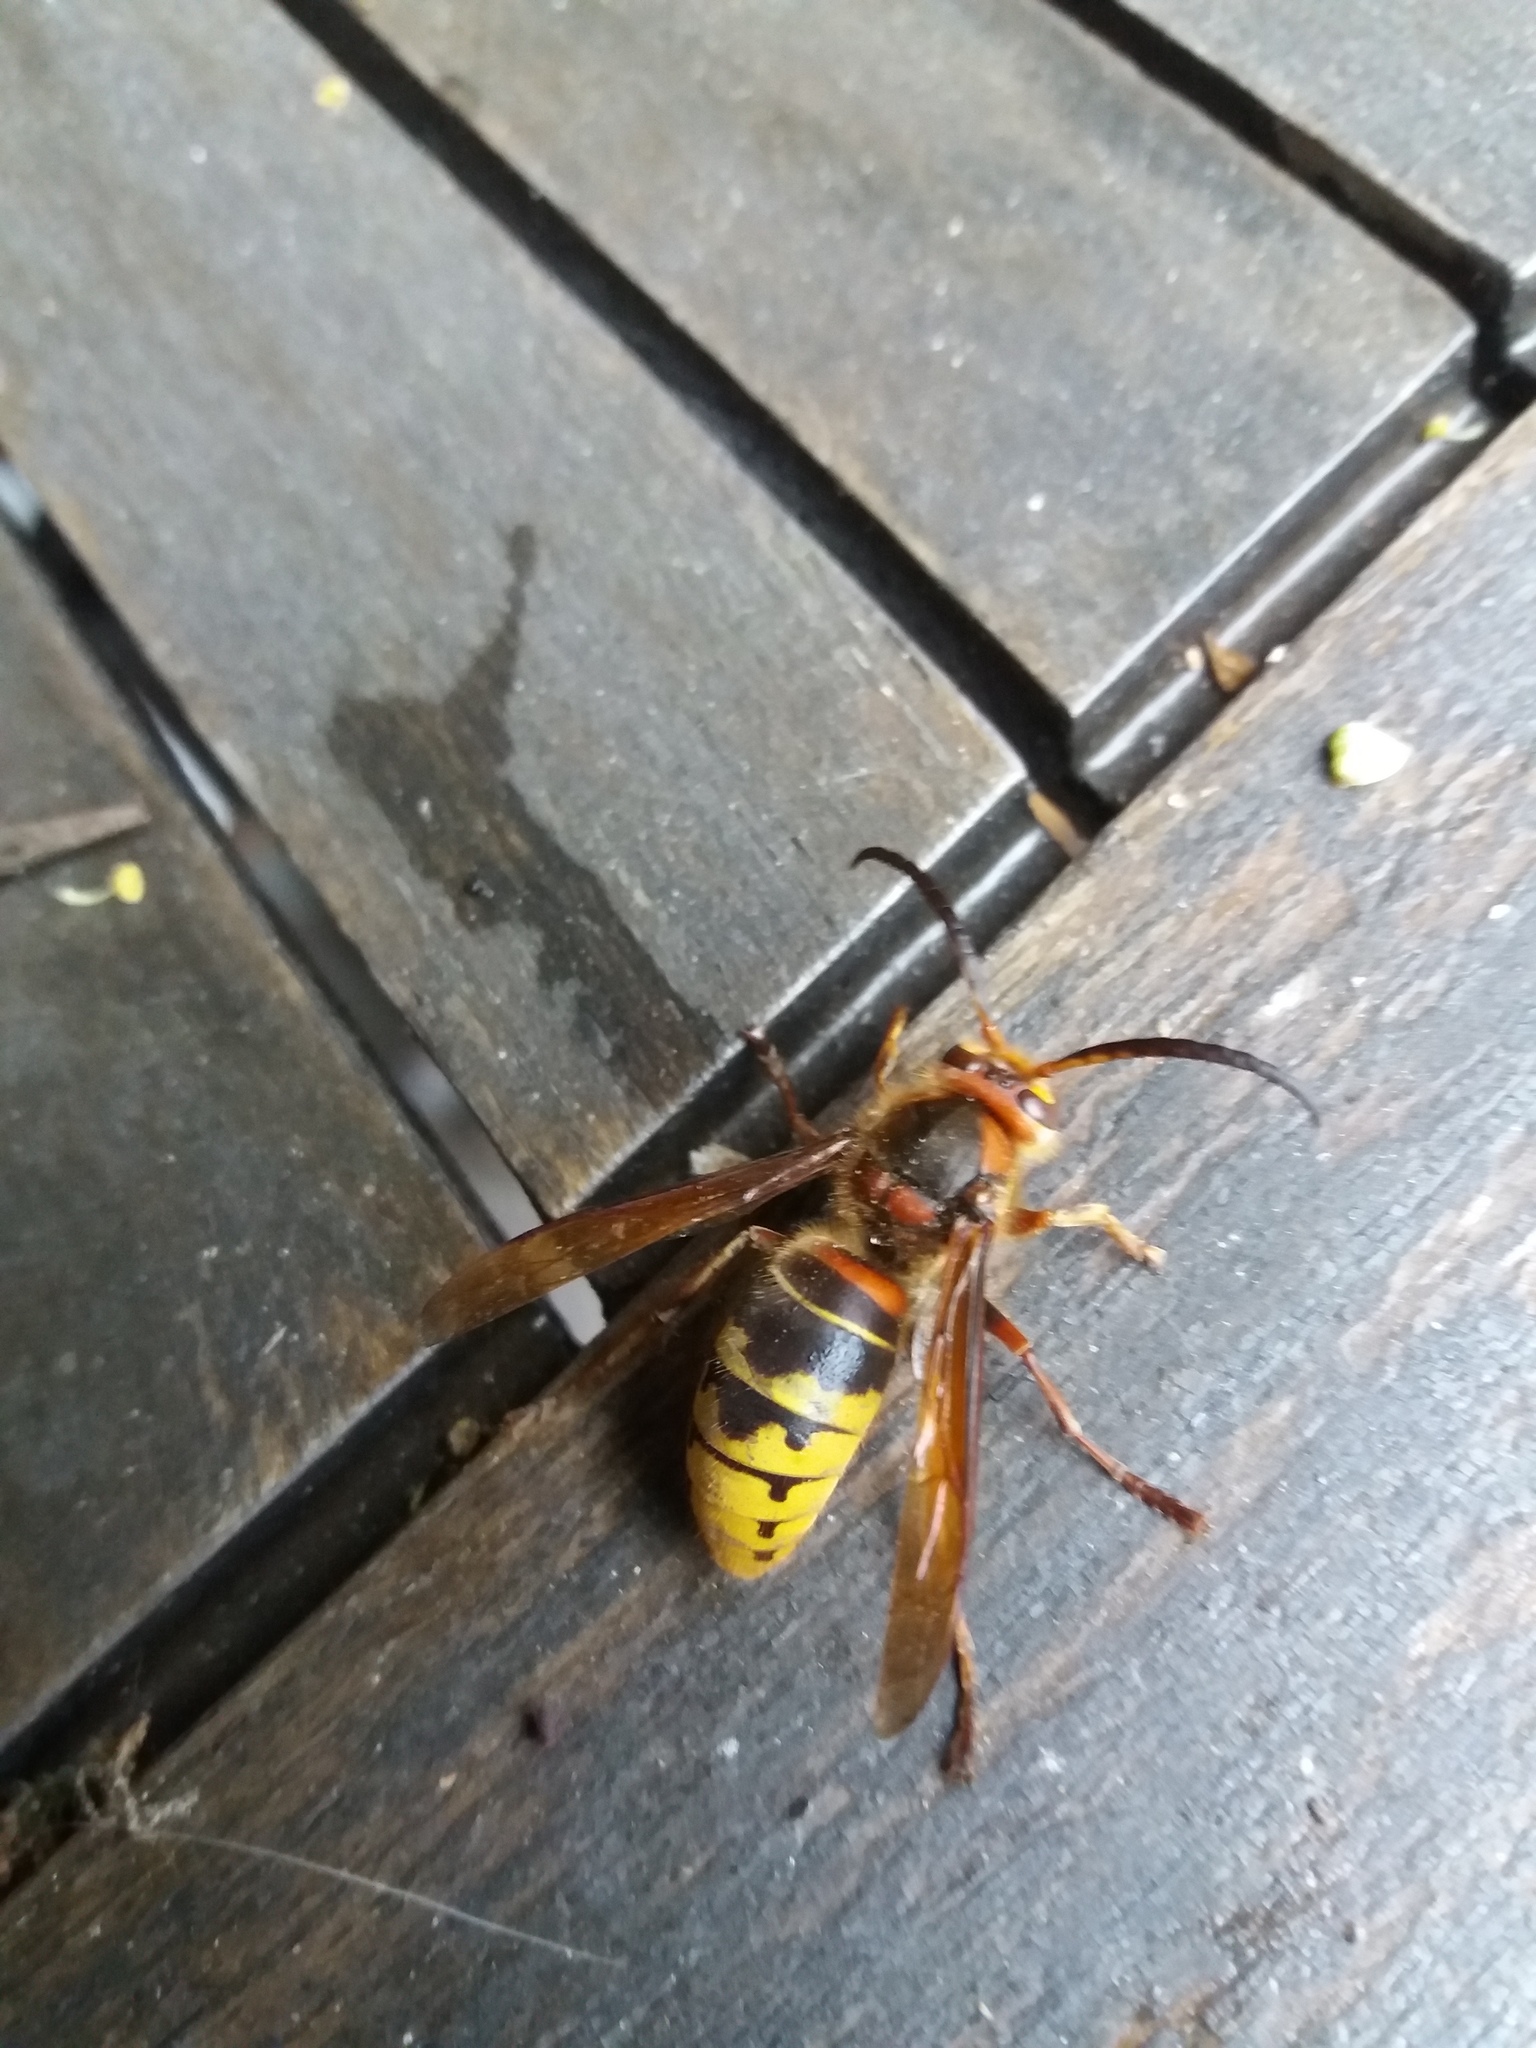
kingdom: Animalia
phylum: Arthropoda
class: Insecta
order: Hymenoptera
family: Vespidae
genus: Vespa
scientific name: Vespa crabro
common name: Hornet
